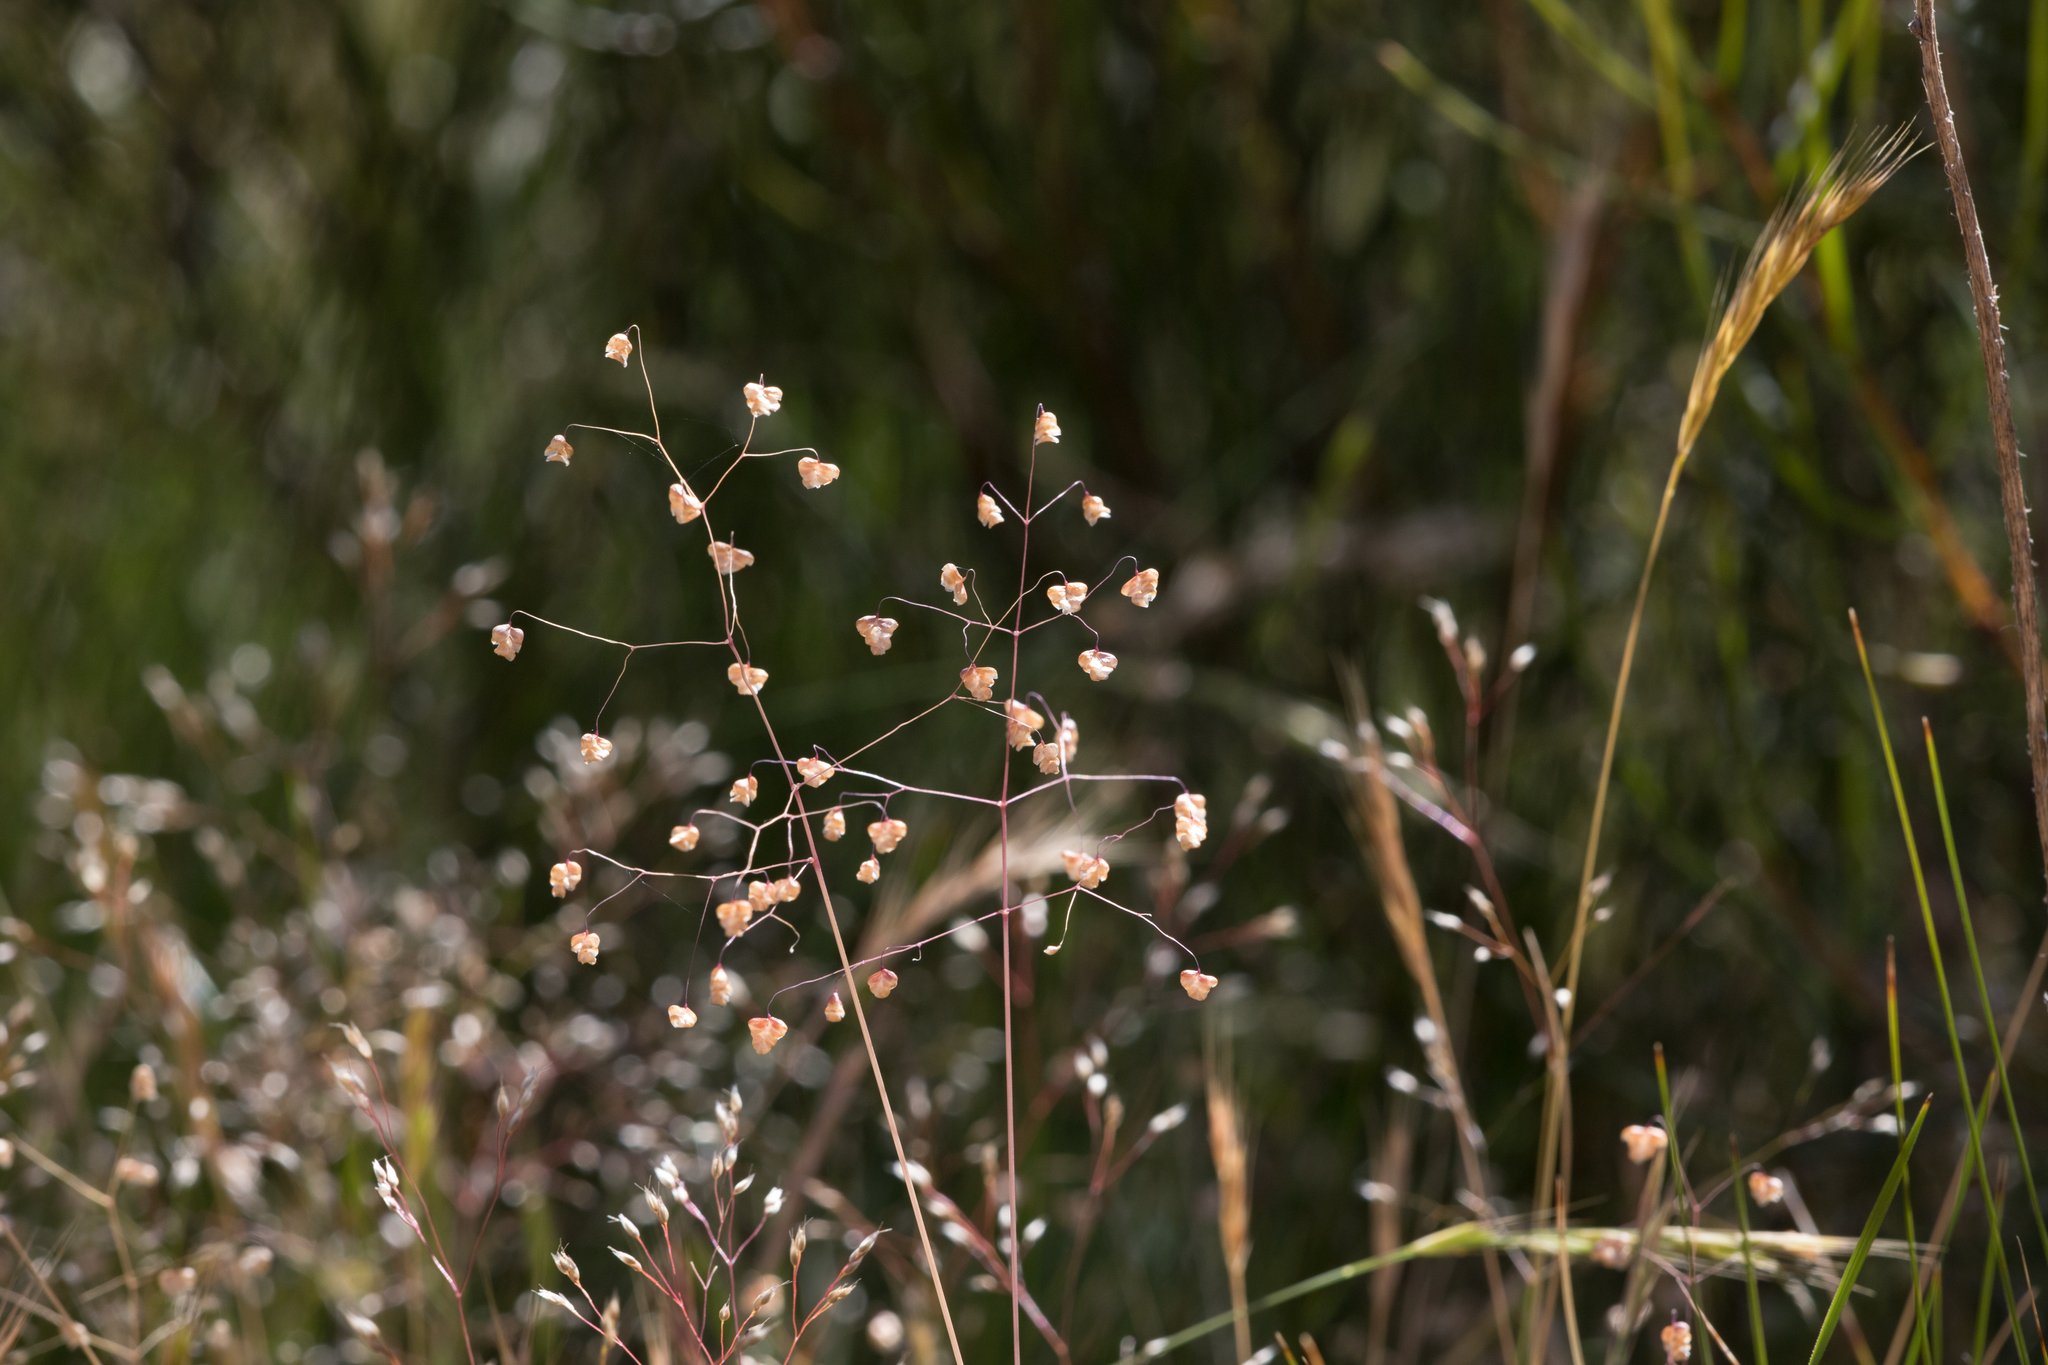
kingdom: Plantae
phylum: Tracheophyta
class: Liliopsida
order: Poales
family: Poaceae
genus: Briza
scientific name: Briza minor
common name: Lesser quaking-grass
